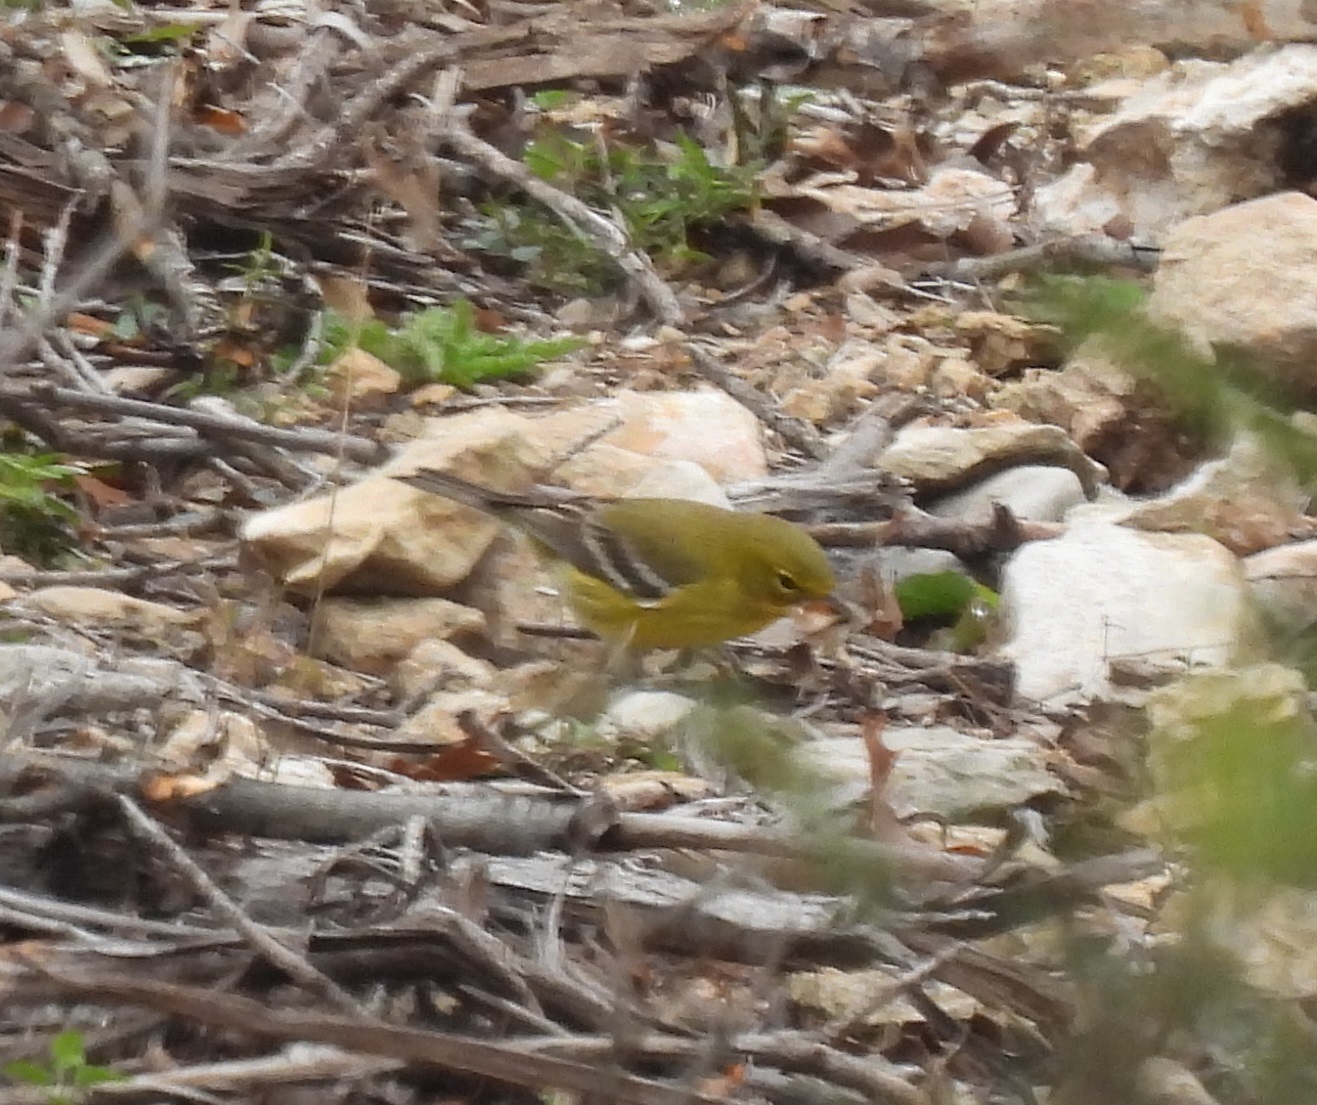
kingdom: Animalia
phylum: Chordata
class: Aves
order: Passeriformes
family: Parulidae
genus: Setophaga
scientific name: Setophaga pinus
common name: Pine warbler
